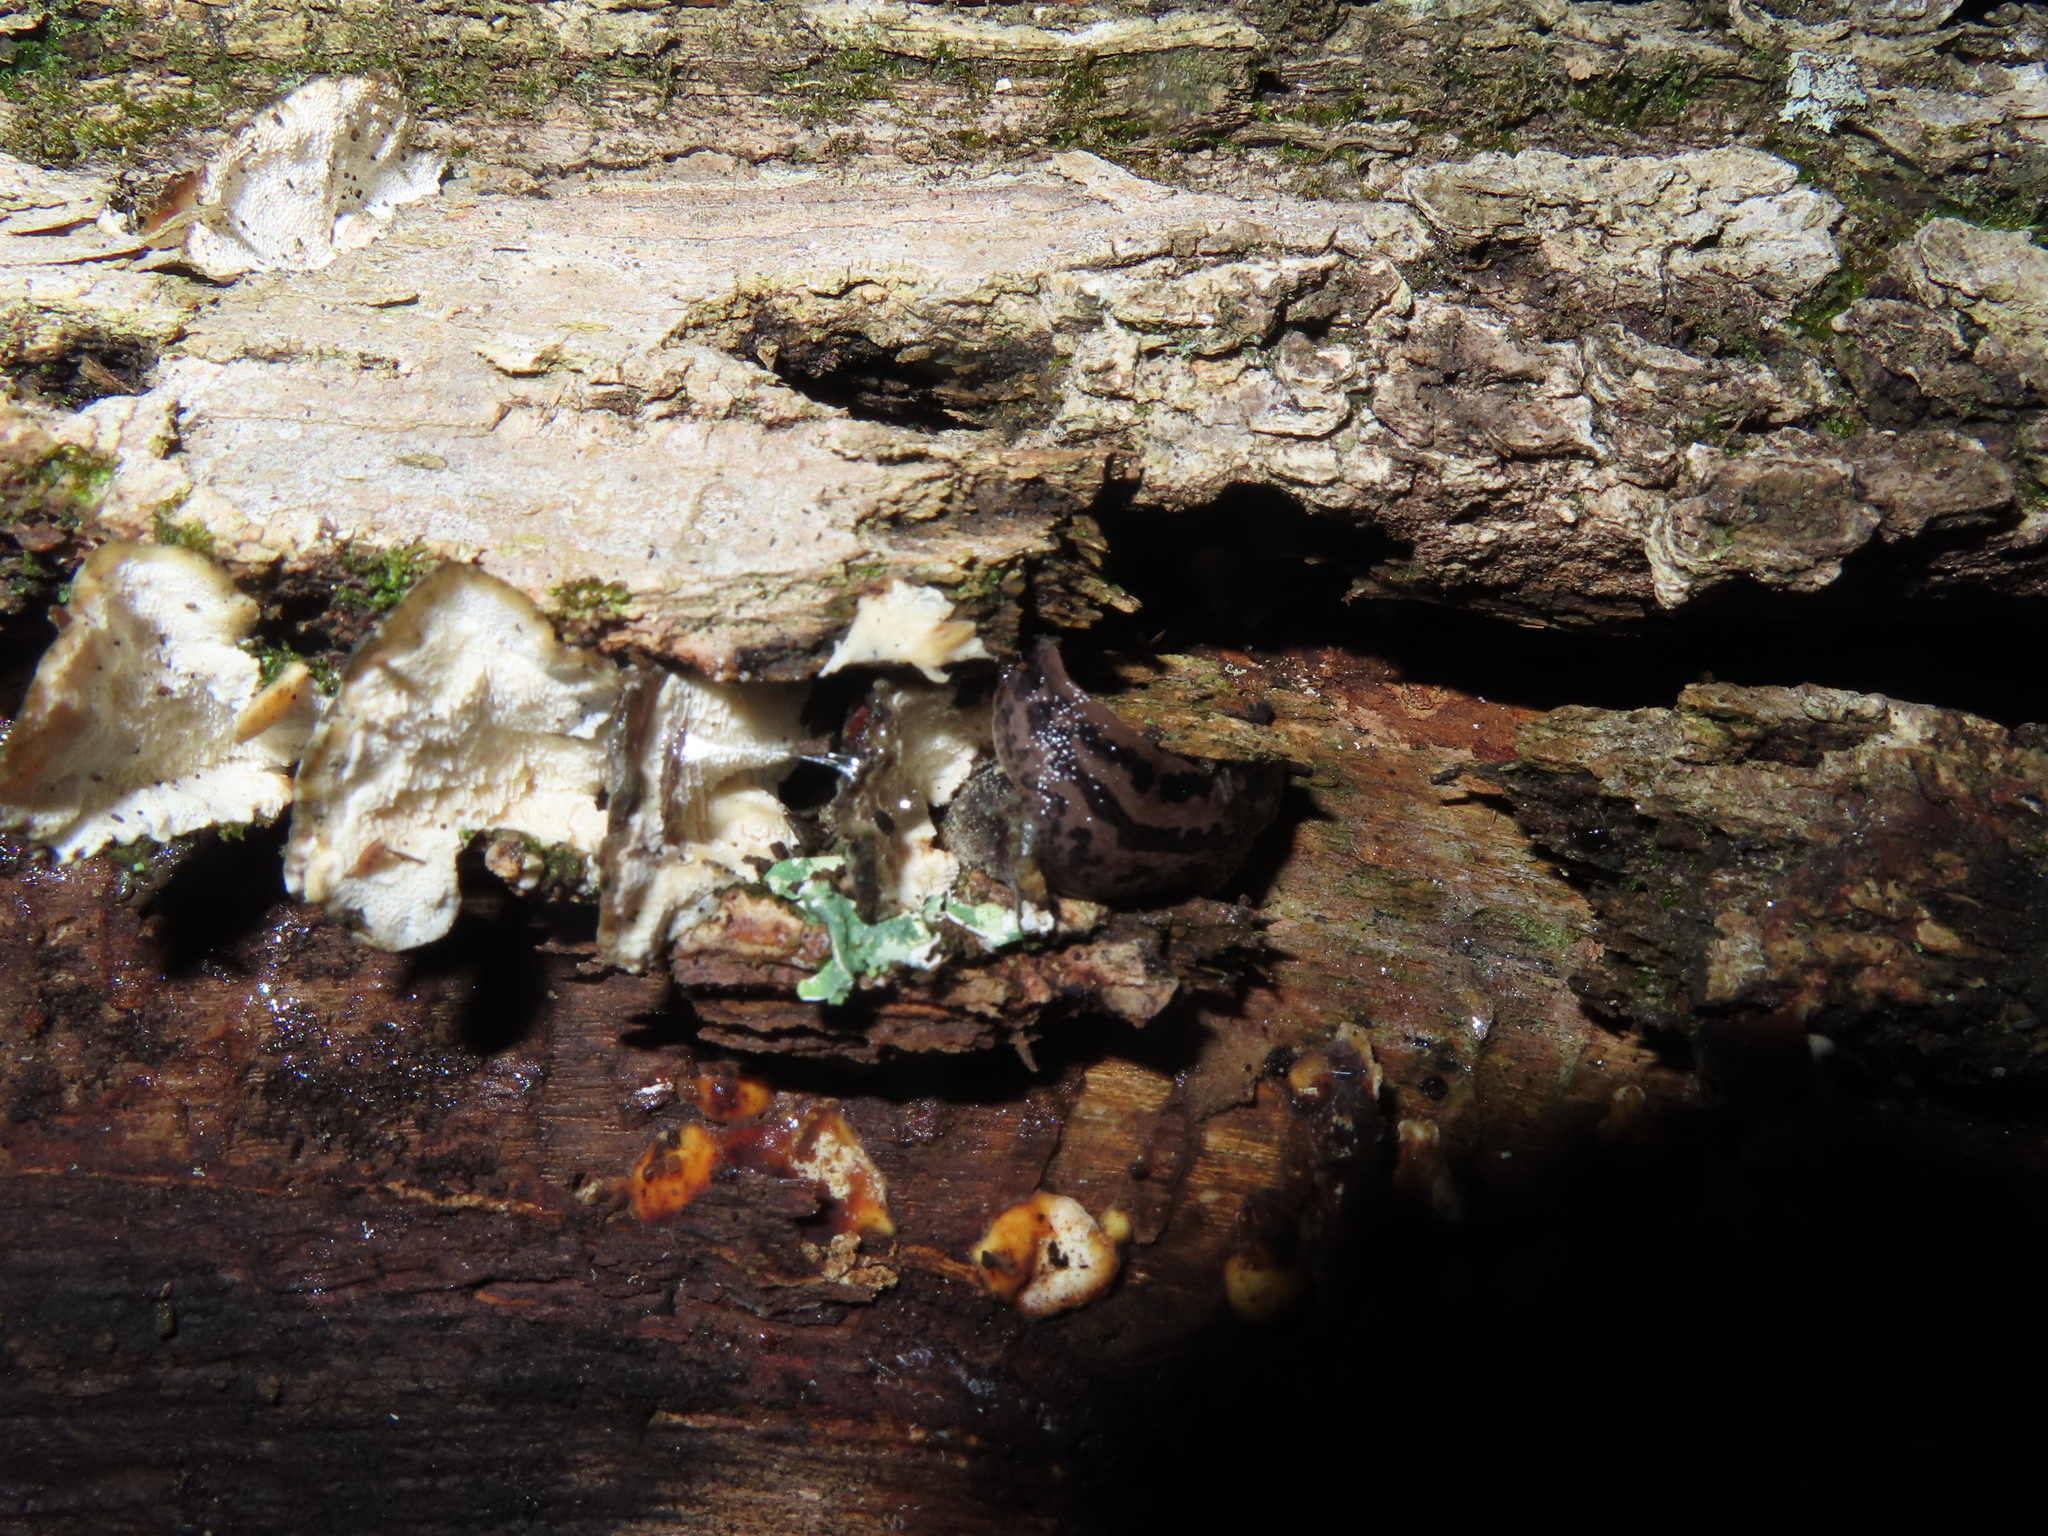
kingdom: Animalia
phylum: Mollusca
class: Gastropoda
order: Stylommatophora
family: Limacidae
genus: Limax
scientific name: Limax maximus
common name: Great grey slug
